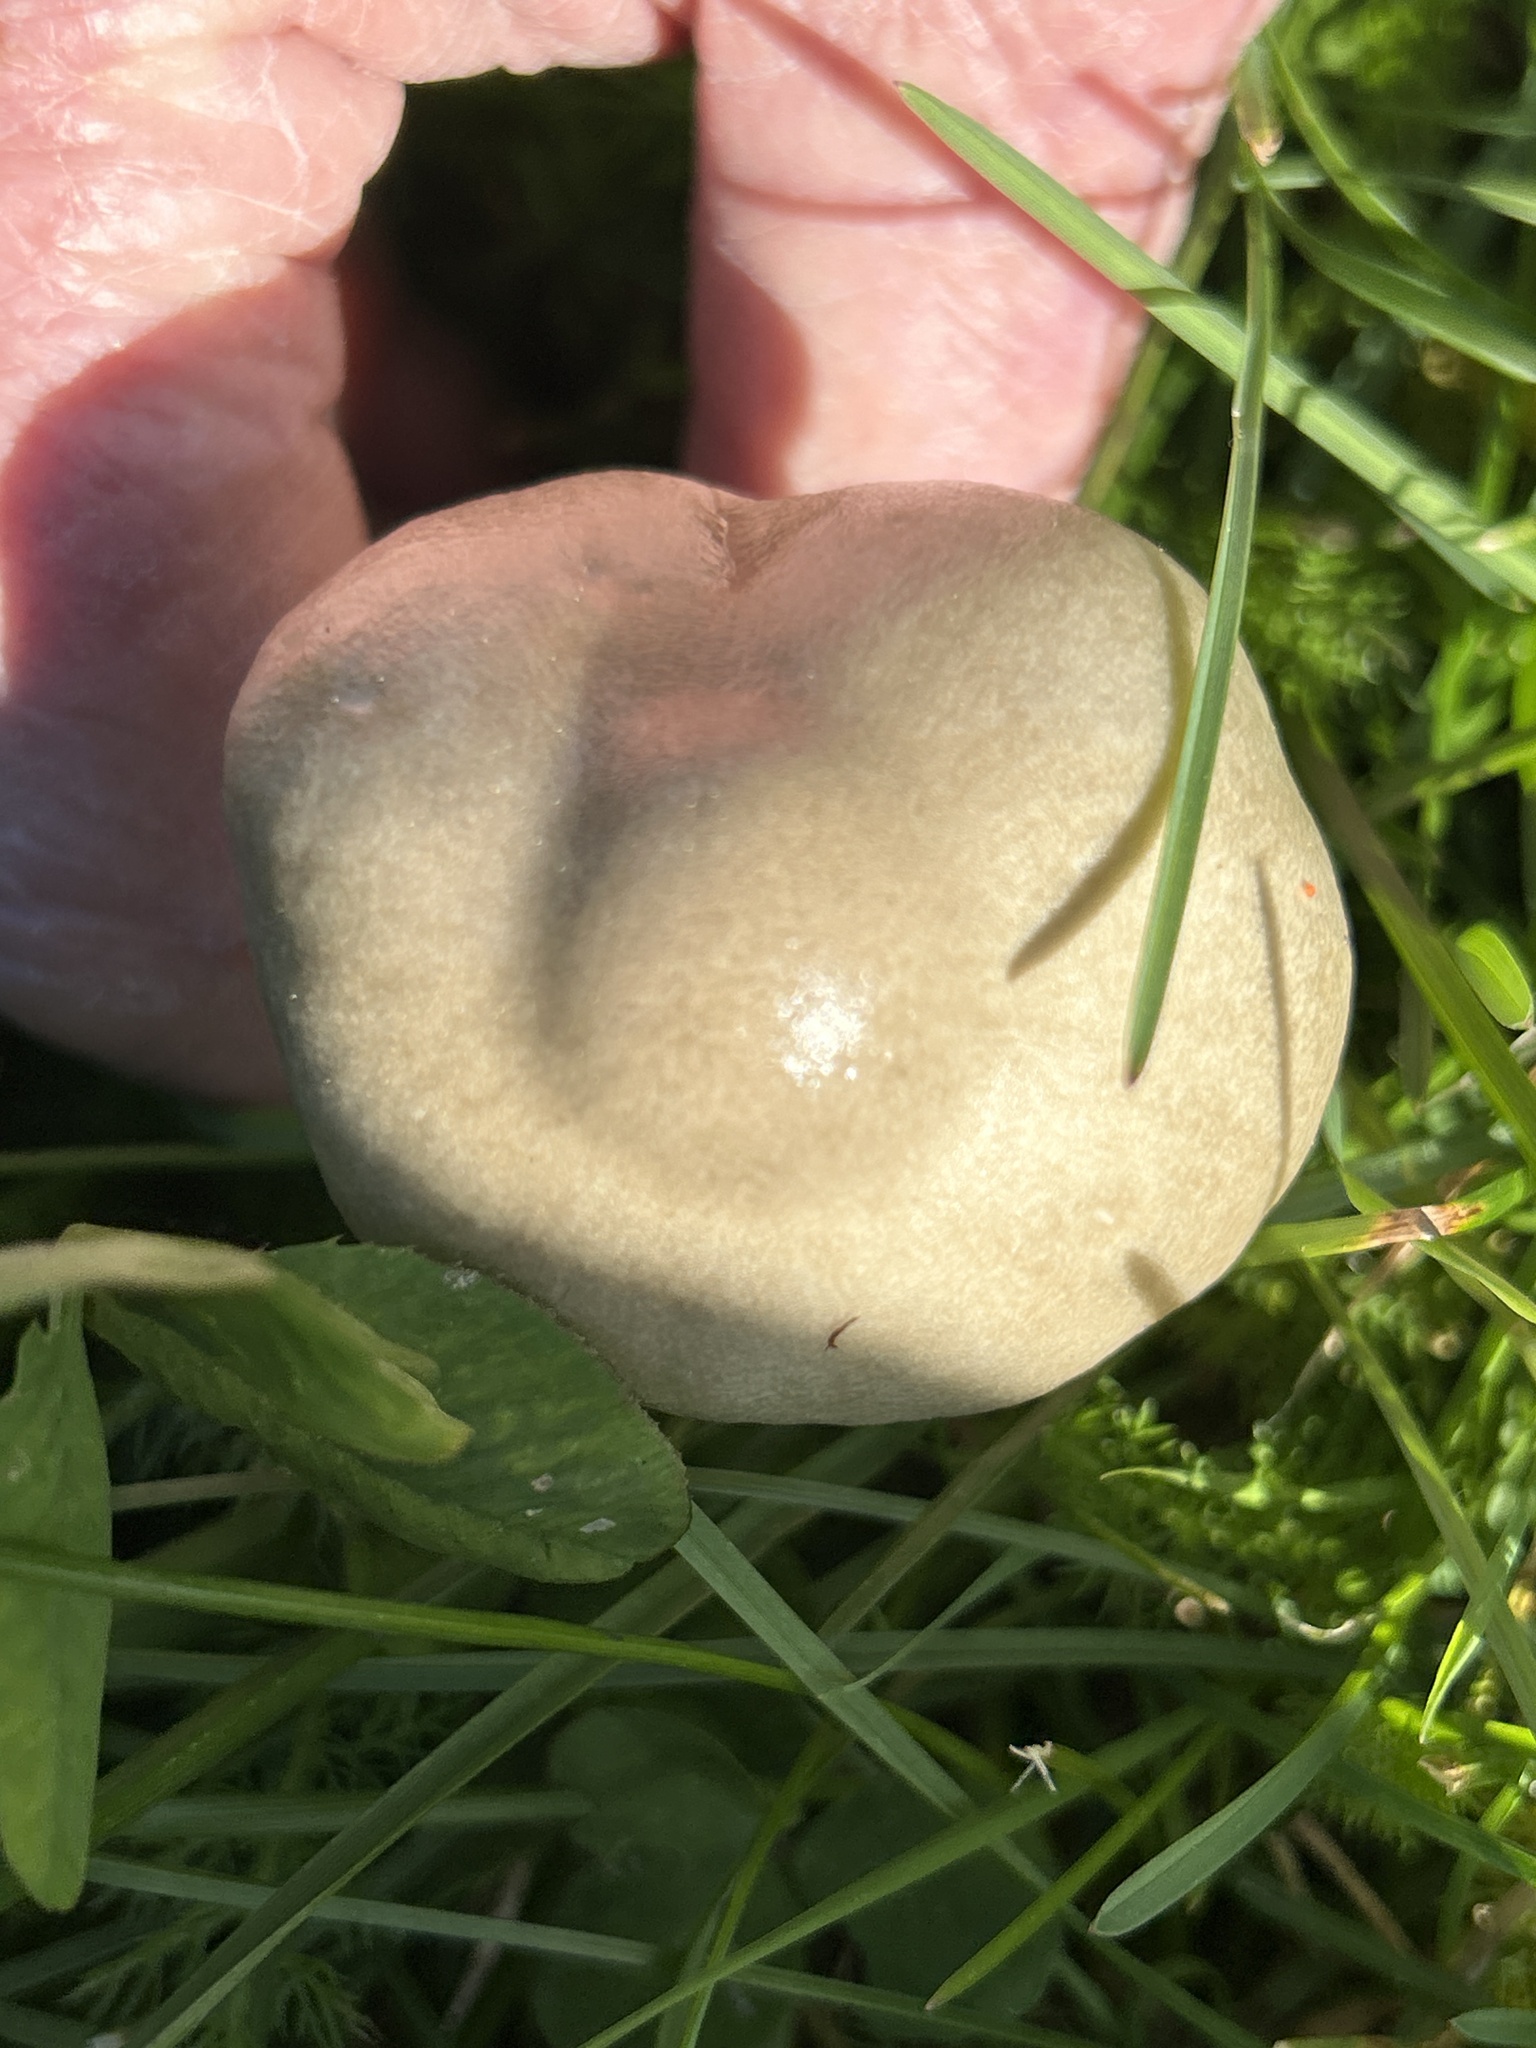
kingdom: Fungi
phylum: Basidiomycota
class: Agaricomycetes
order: Agaricales
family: Pluteaceae
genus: Volvopluteus
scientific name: Volvopluteus gloiocephalus
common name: Stubble rosegill
